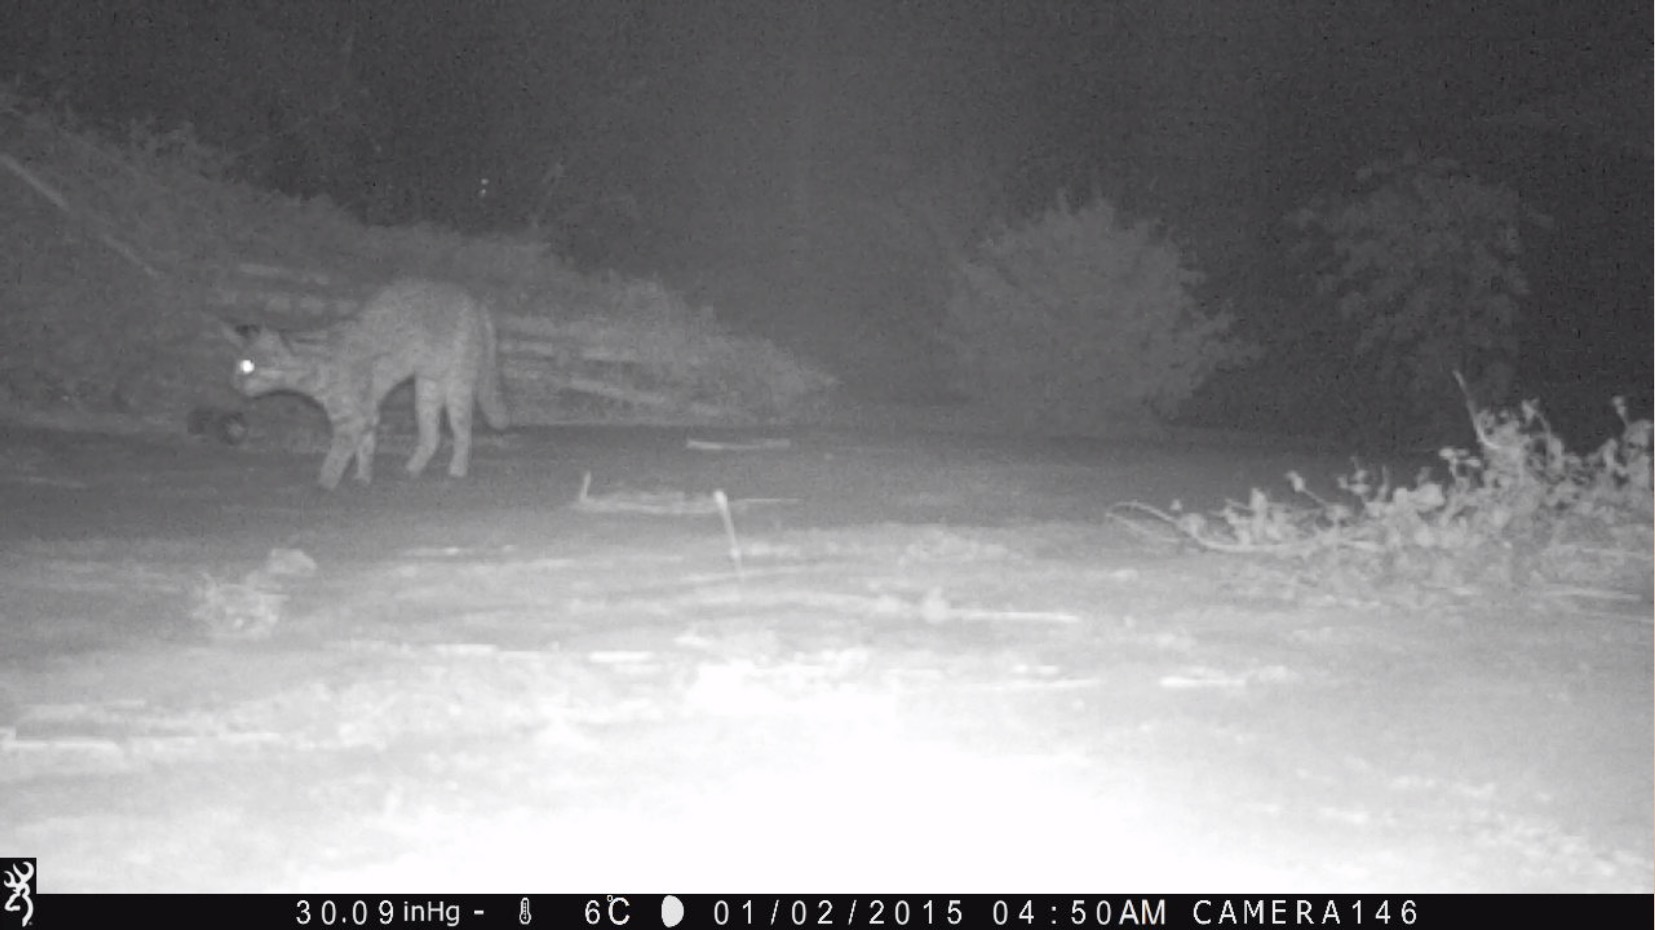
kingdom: Animalia
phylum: Chordata
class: Mammalia
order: Carnivora
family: Felidae
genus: Prionailurus
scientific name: Prionailurus bengalensis
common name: Leopard cat
